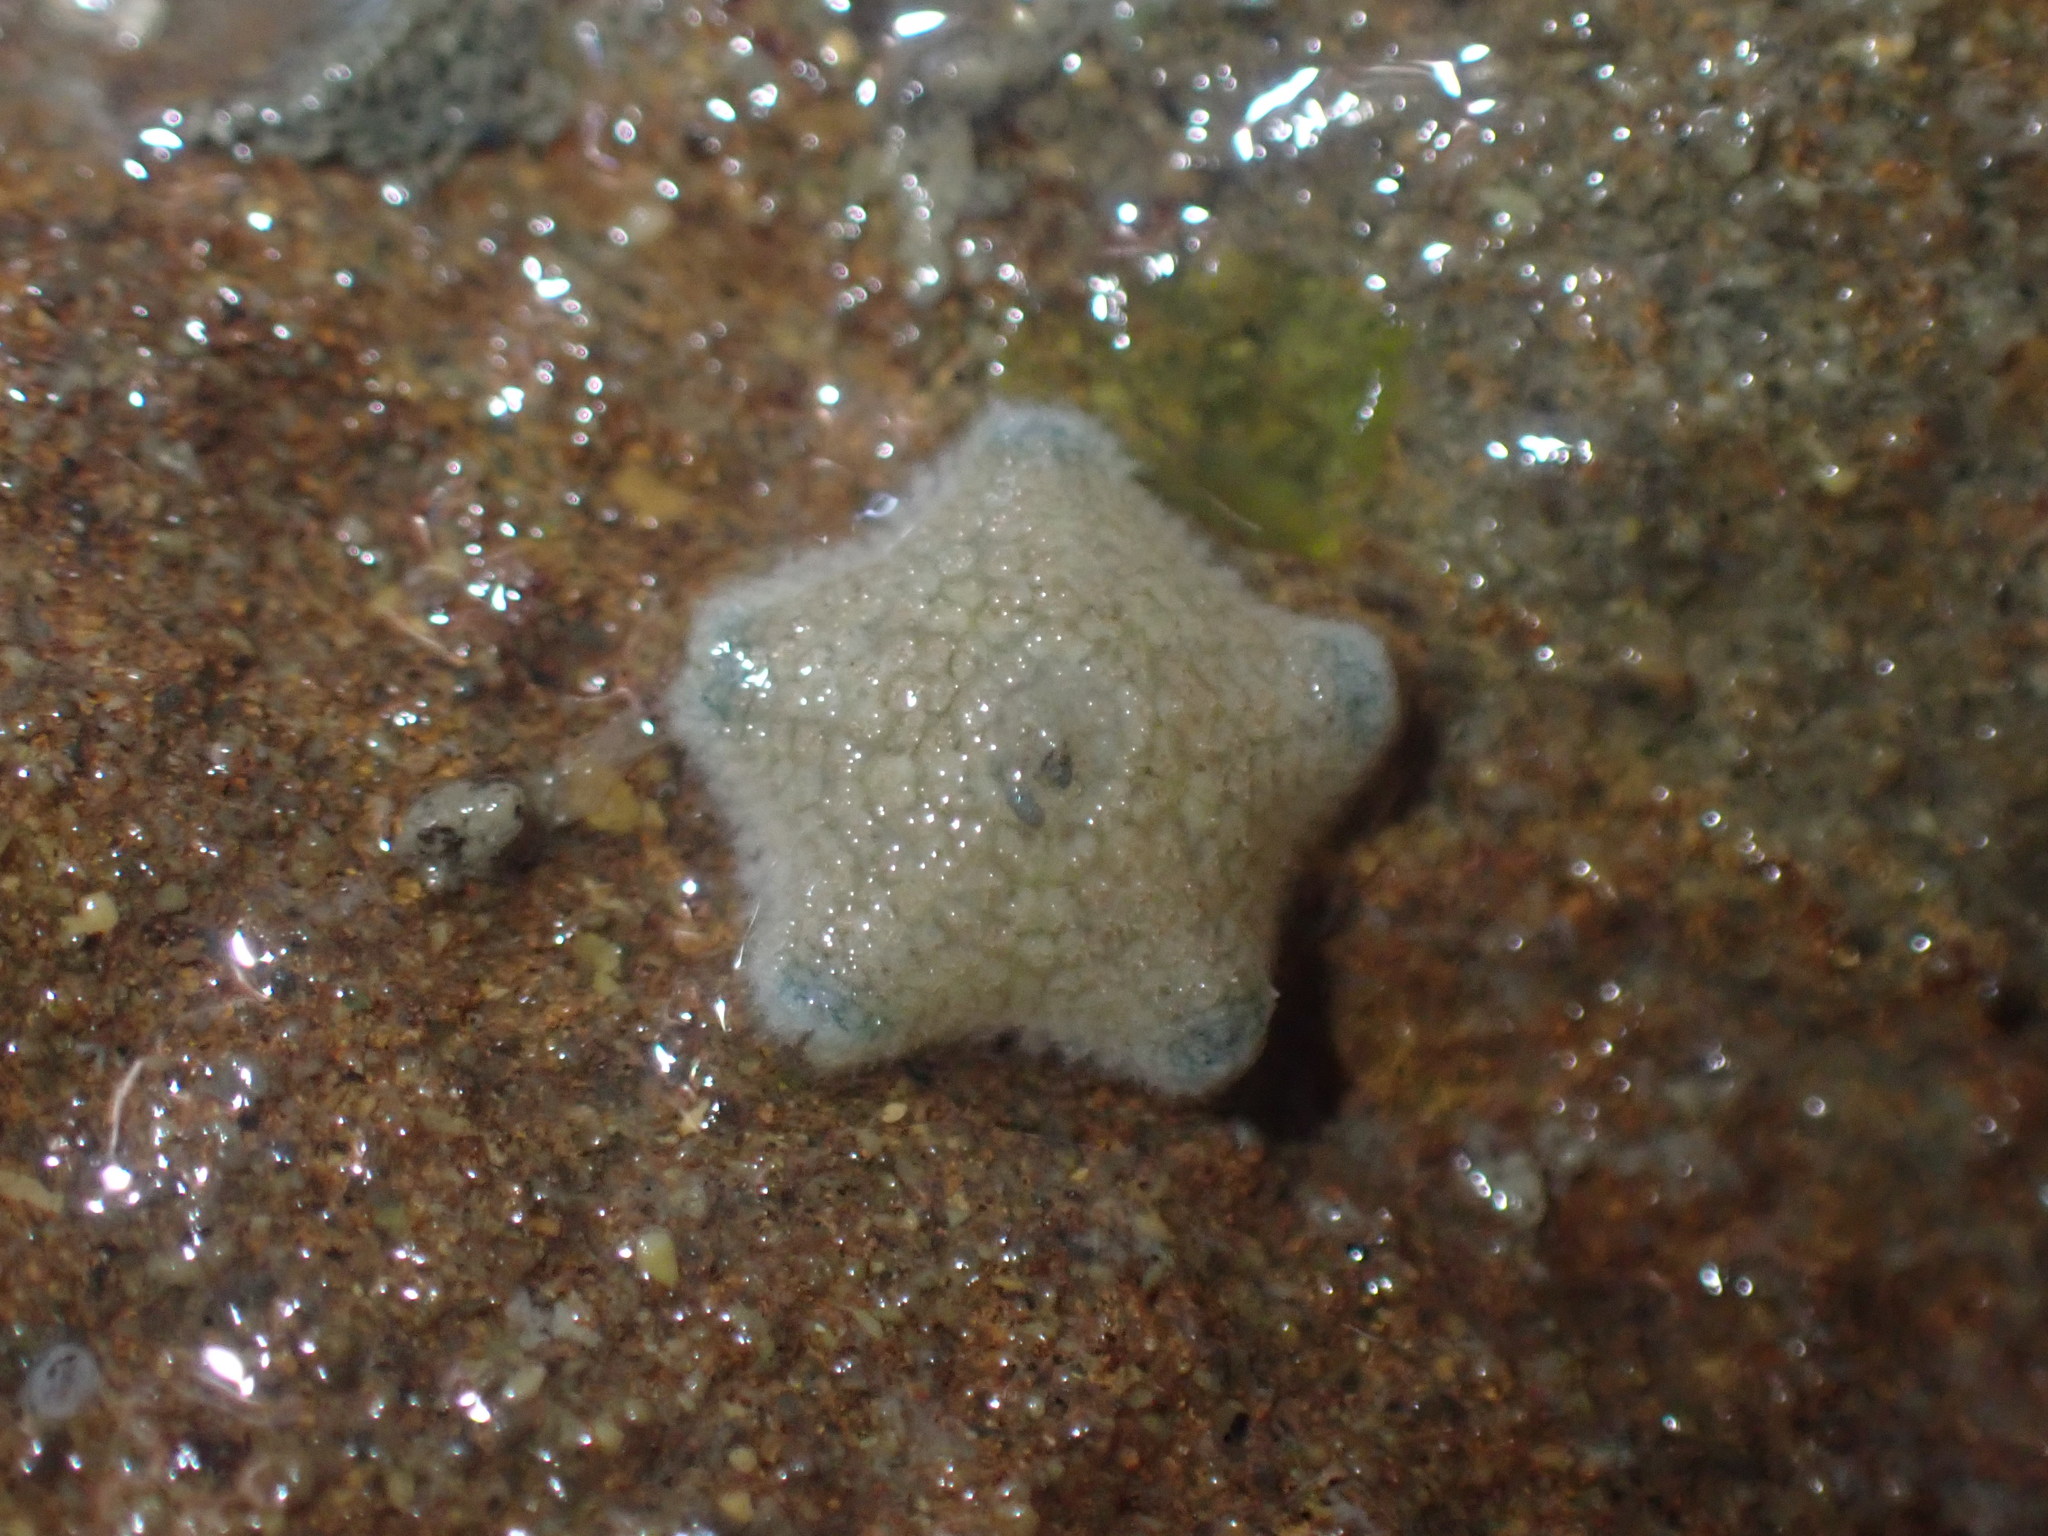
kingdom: Animalia
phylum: Echinodermata
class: Asteroidea
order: Valvatida
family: Asterinidae
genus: Patiriella
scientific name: Patiriella regularis
